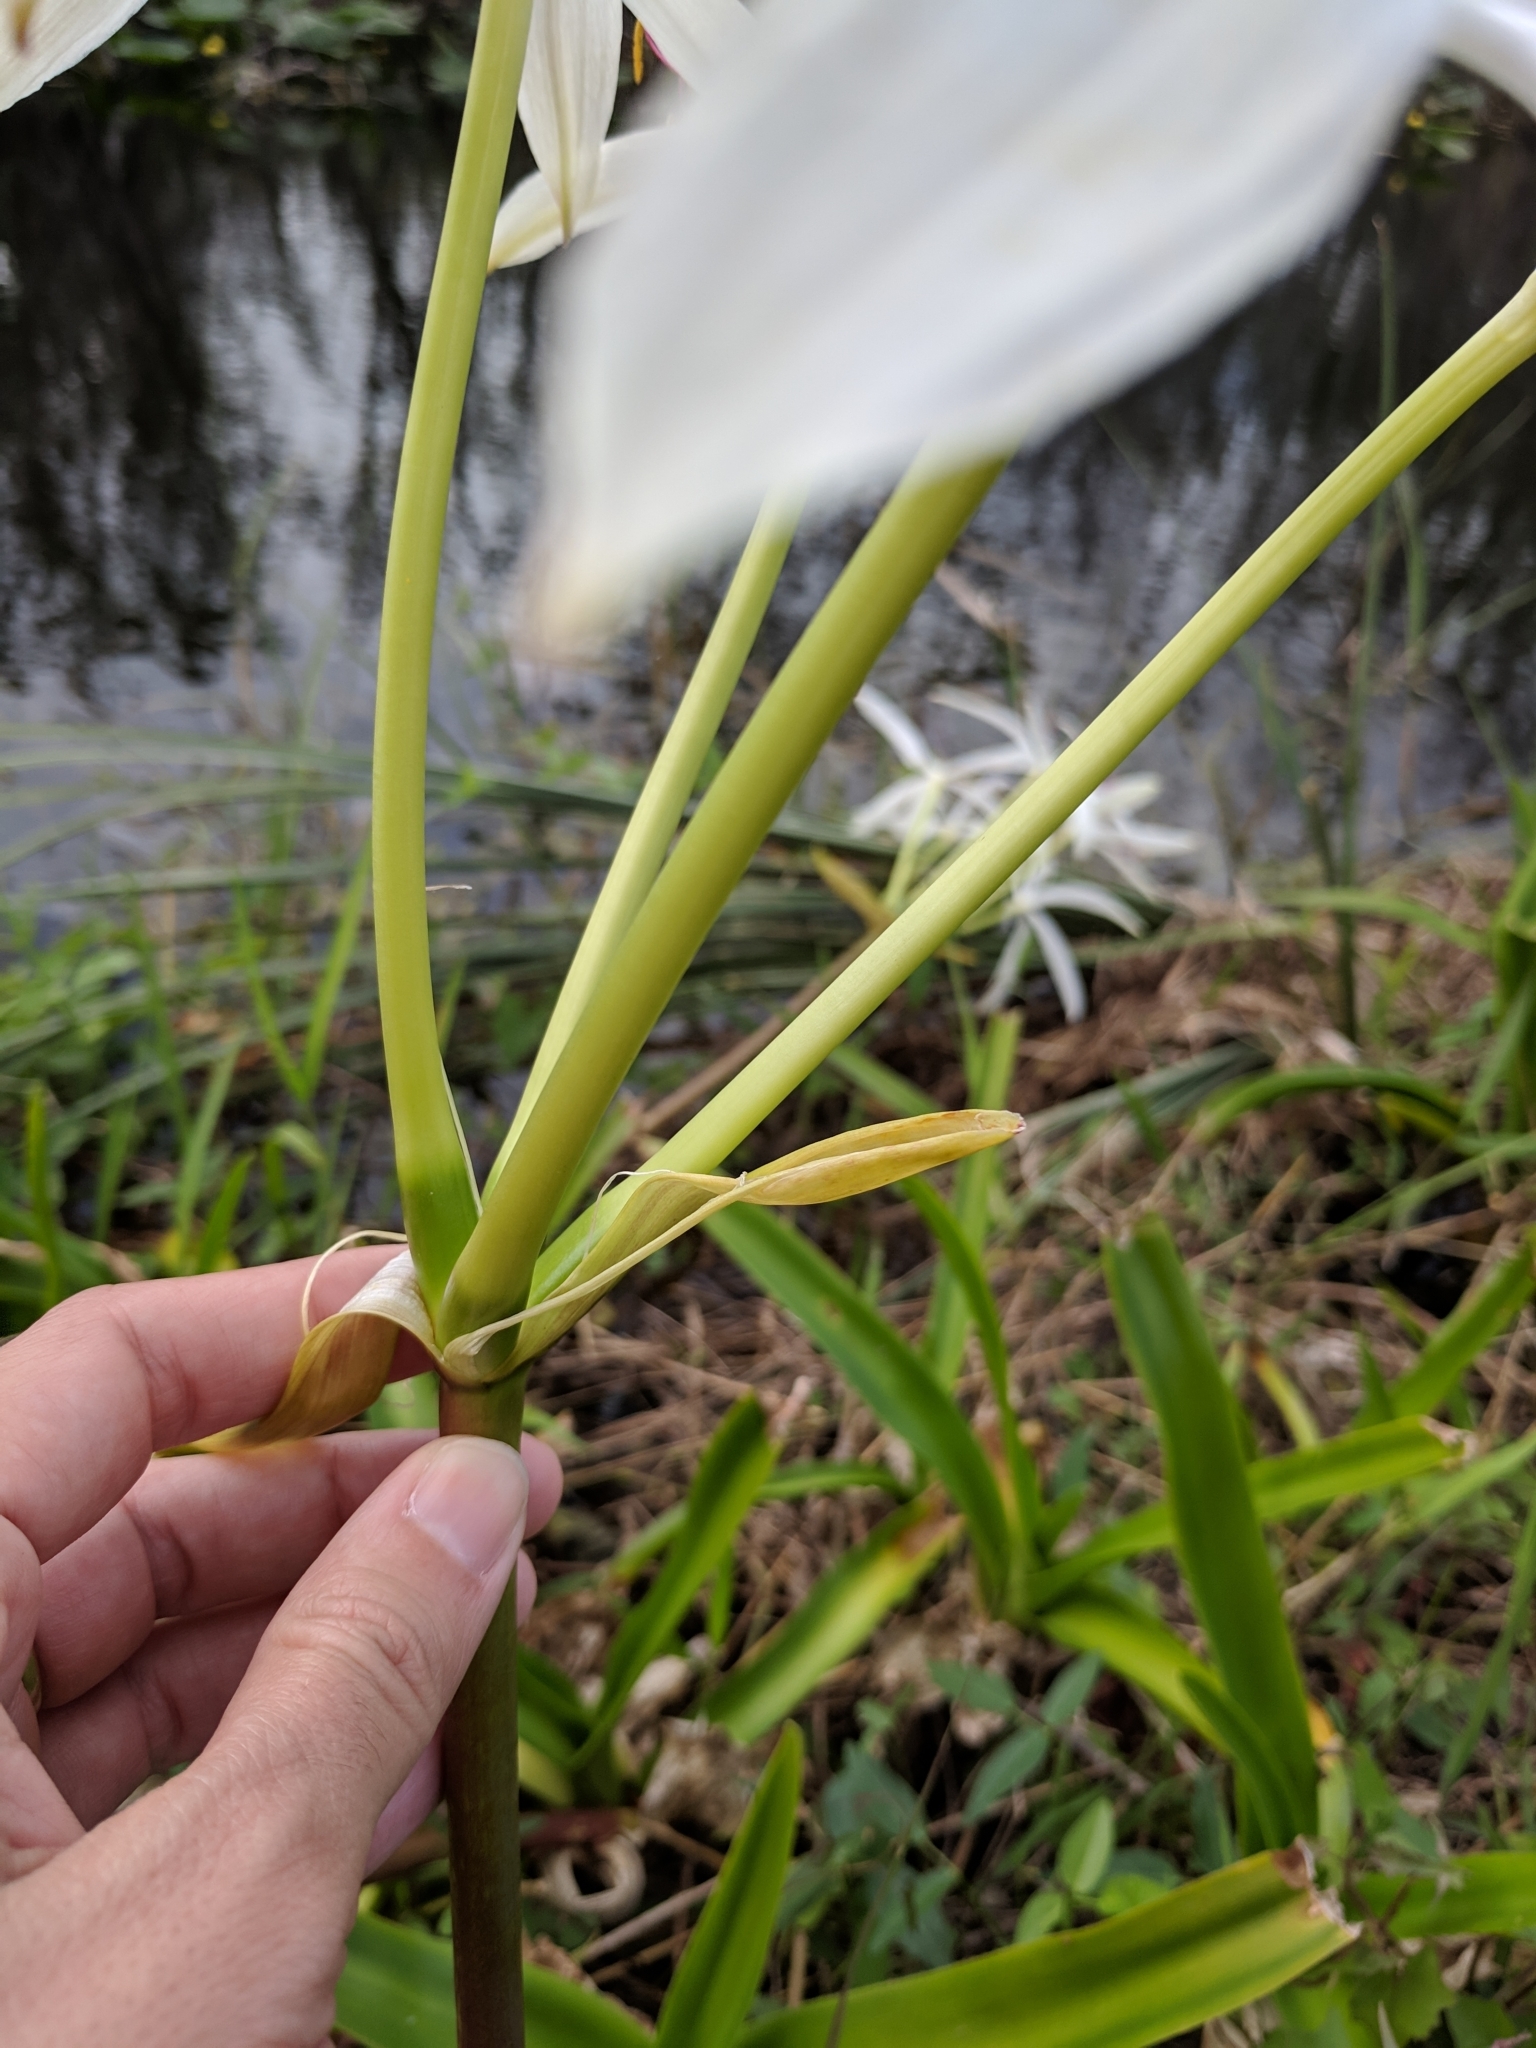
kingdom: Plantae
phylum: Tracheophyta
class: Liliopsida
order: Asparagales
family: Amaryllidaceae
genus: Crinum
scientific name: Crinum americanum
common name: Florida swamp-lily
